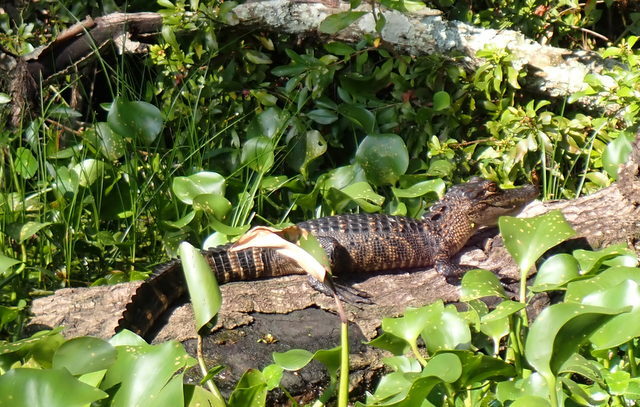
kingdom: Animalia
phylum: Chordata
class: Crocodylia
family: Alligatoridae
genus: Alligator
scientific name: Alligator mississippiensis
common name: American alligator
